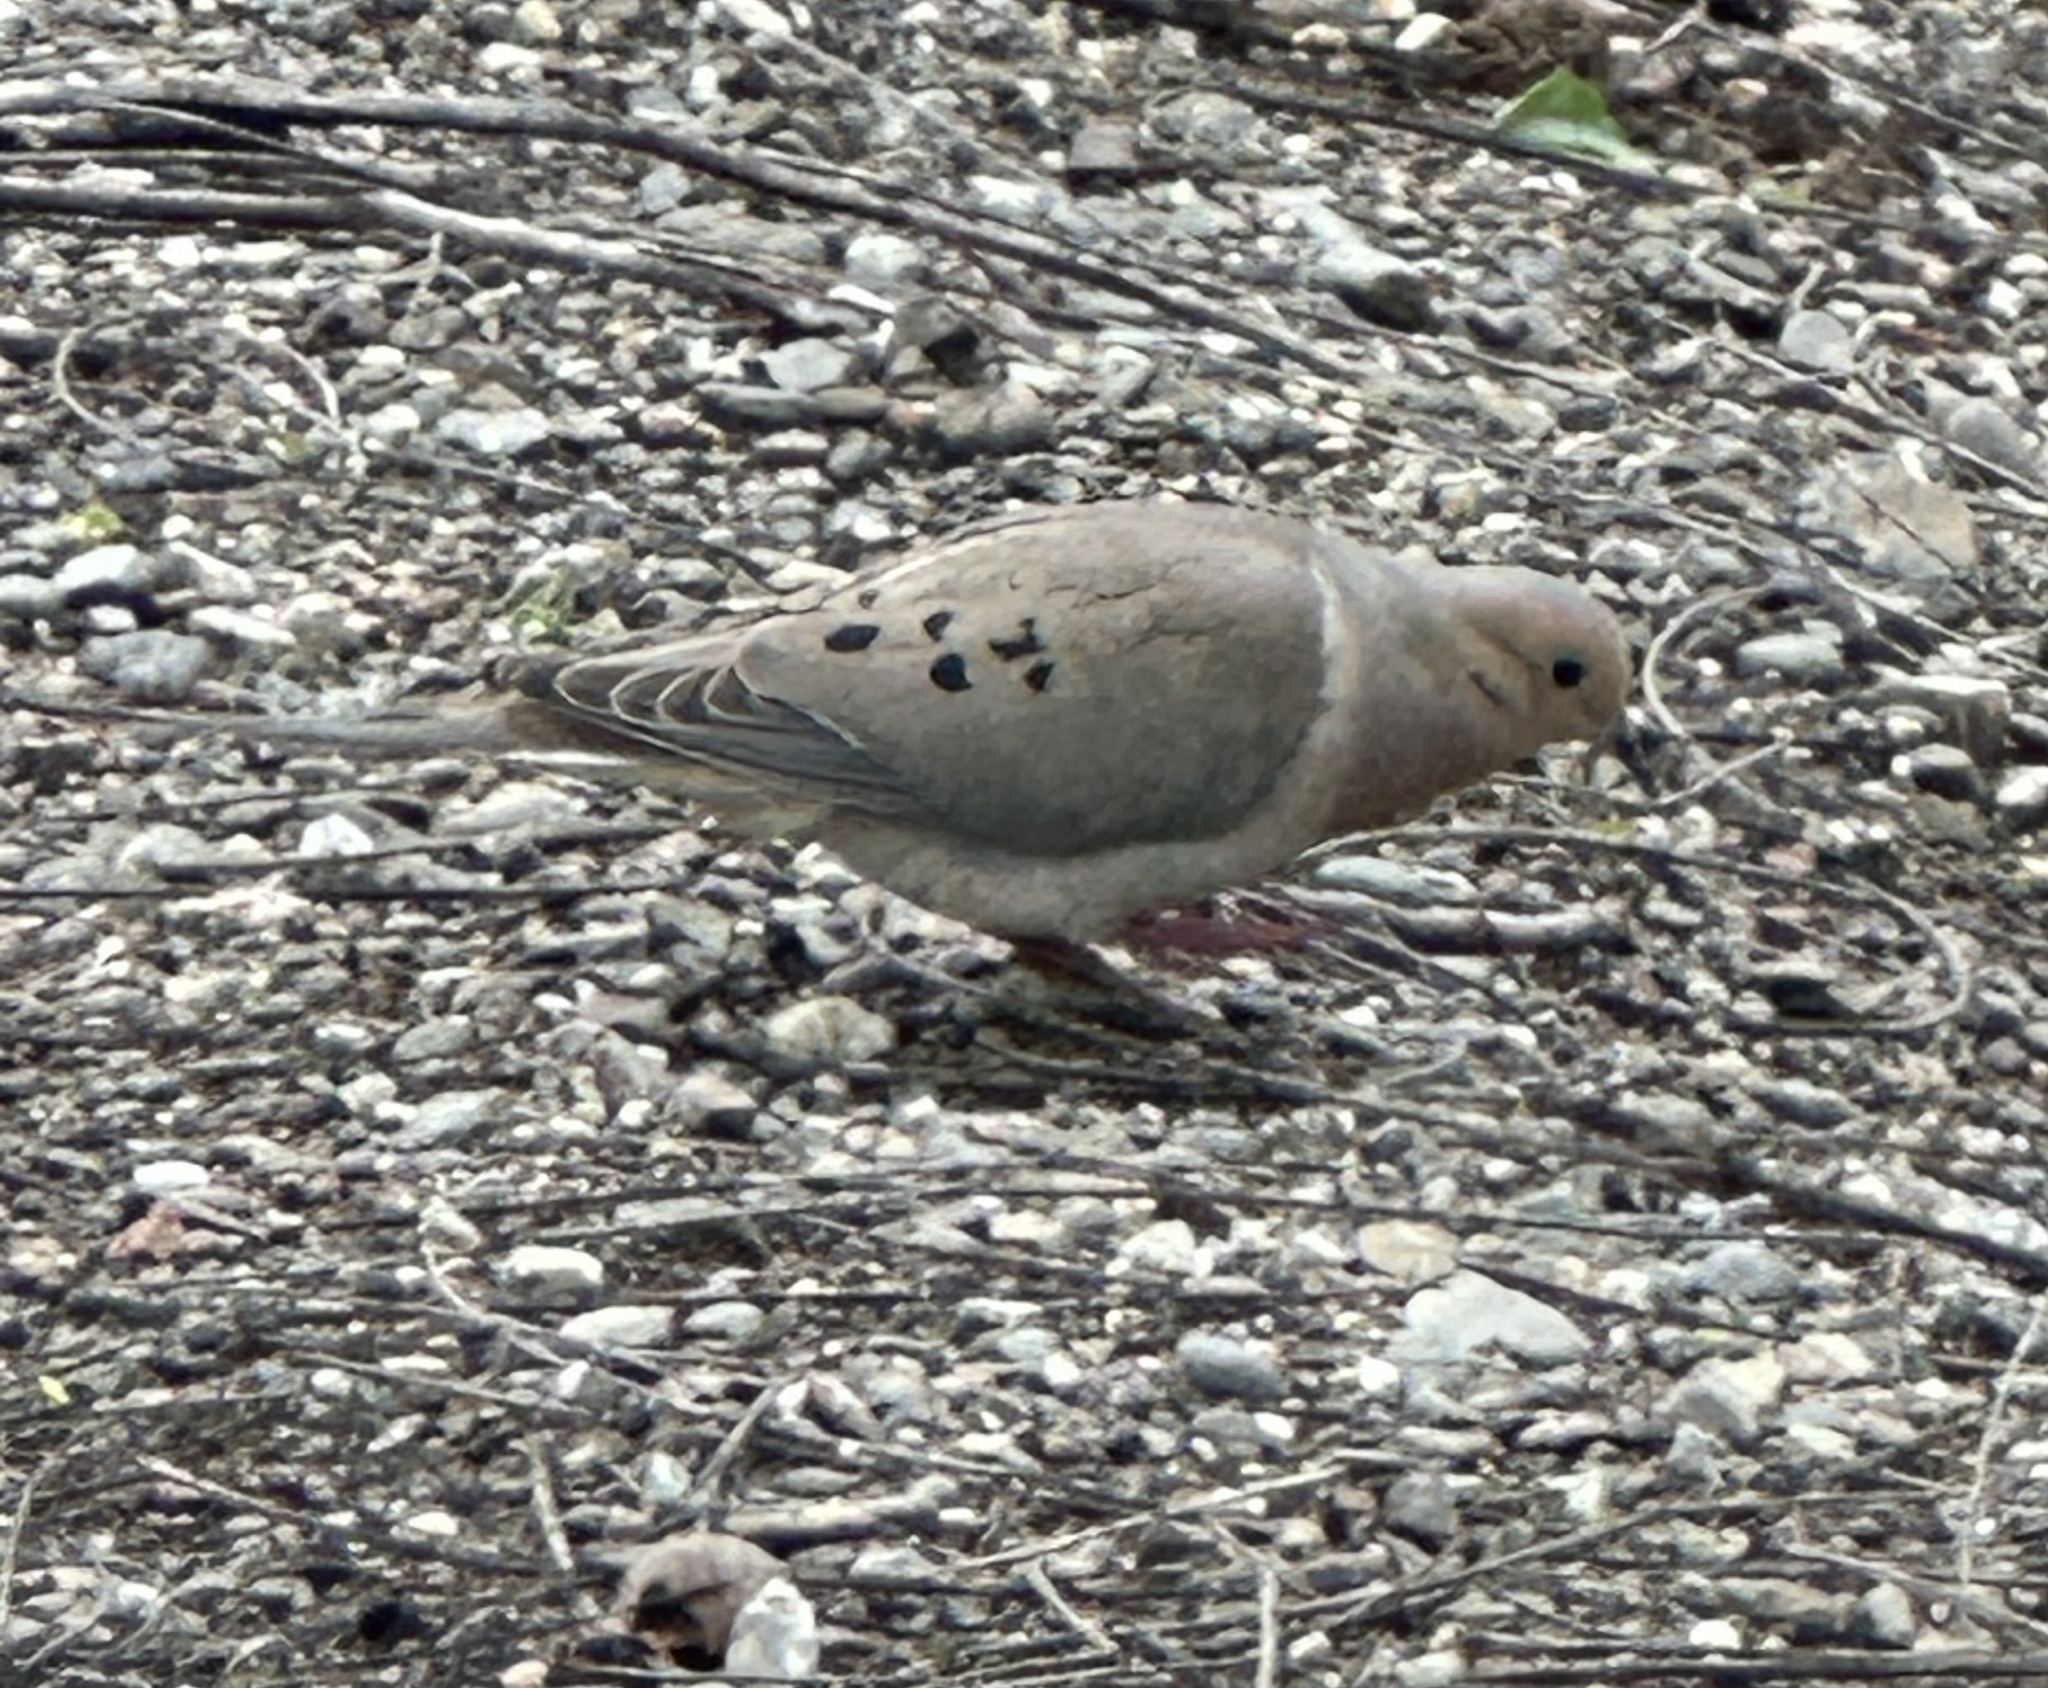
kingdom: Animalia
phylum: Chordata
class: Aves
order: Columbiformes
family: Columbidae
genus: Zenaida
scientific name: Zenaida macroura
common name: Mourning dove
